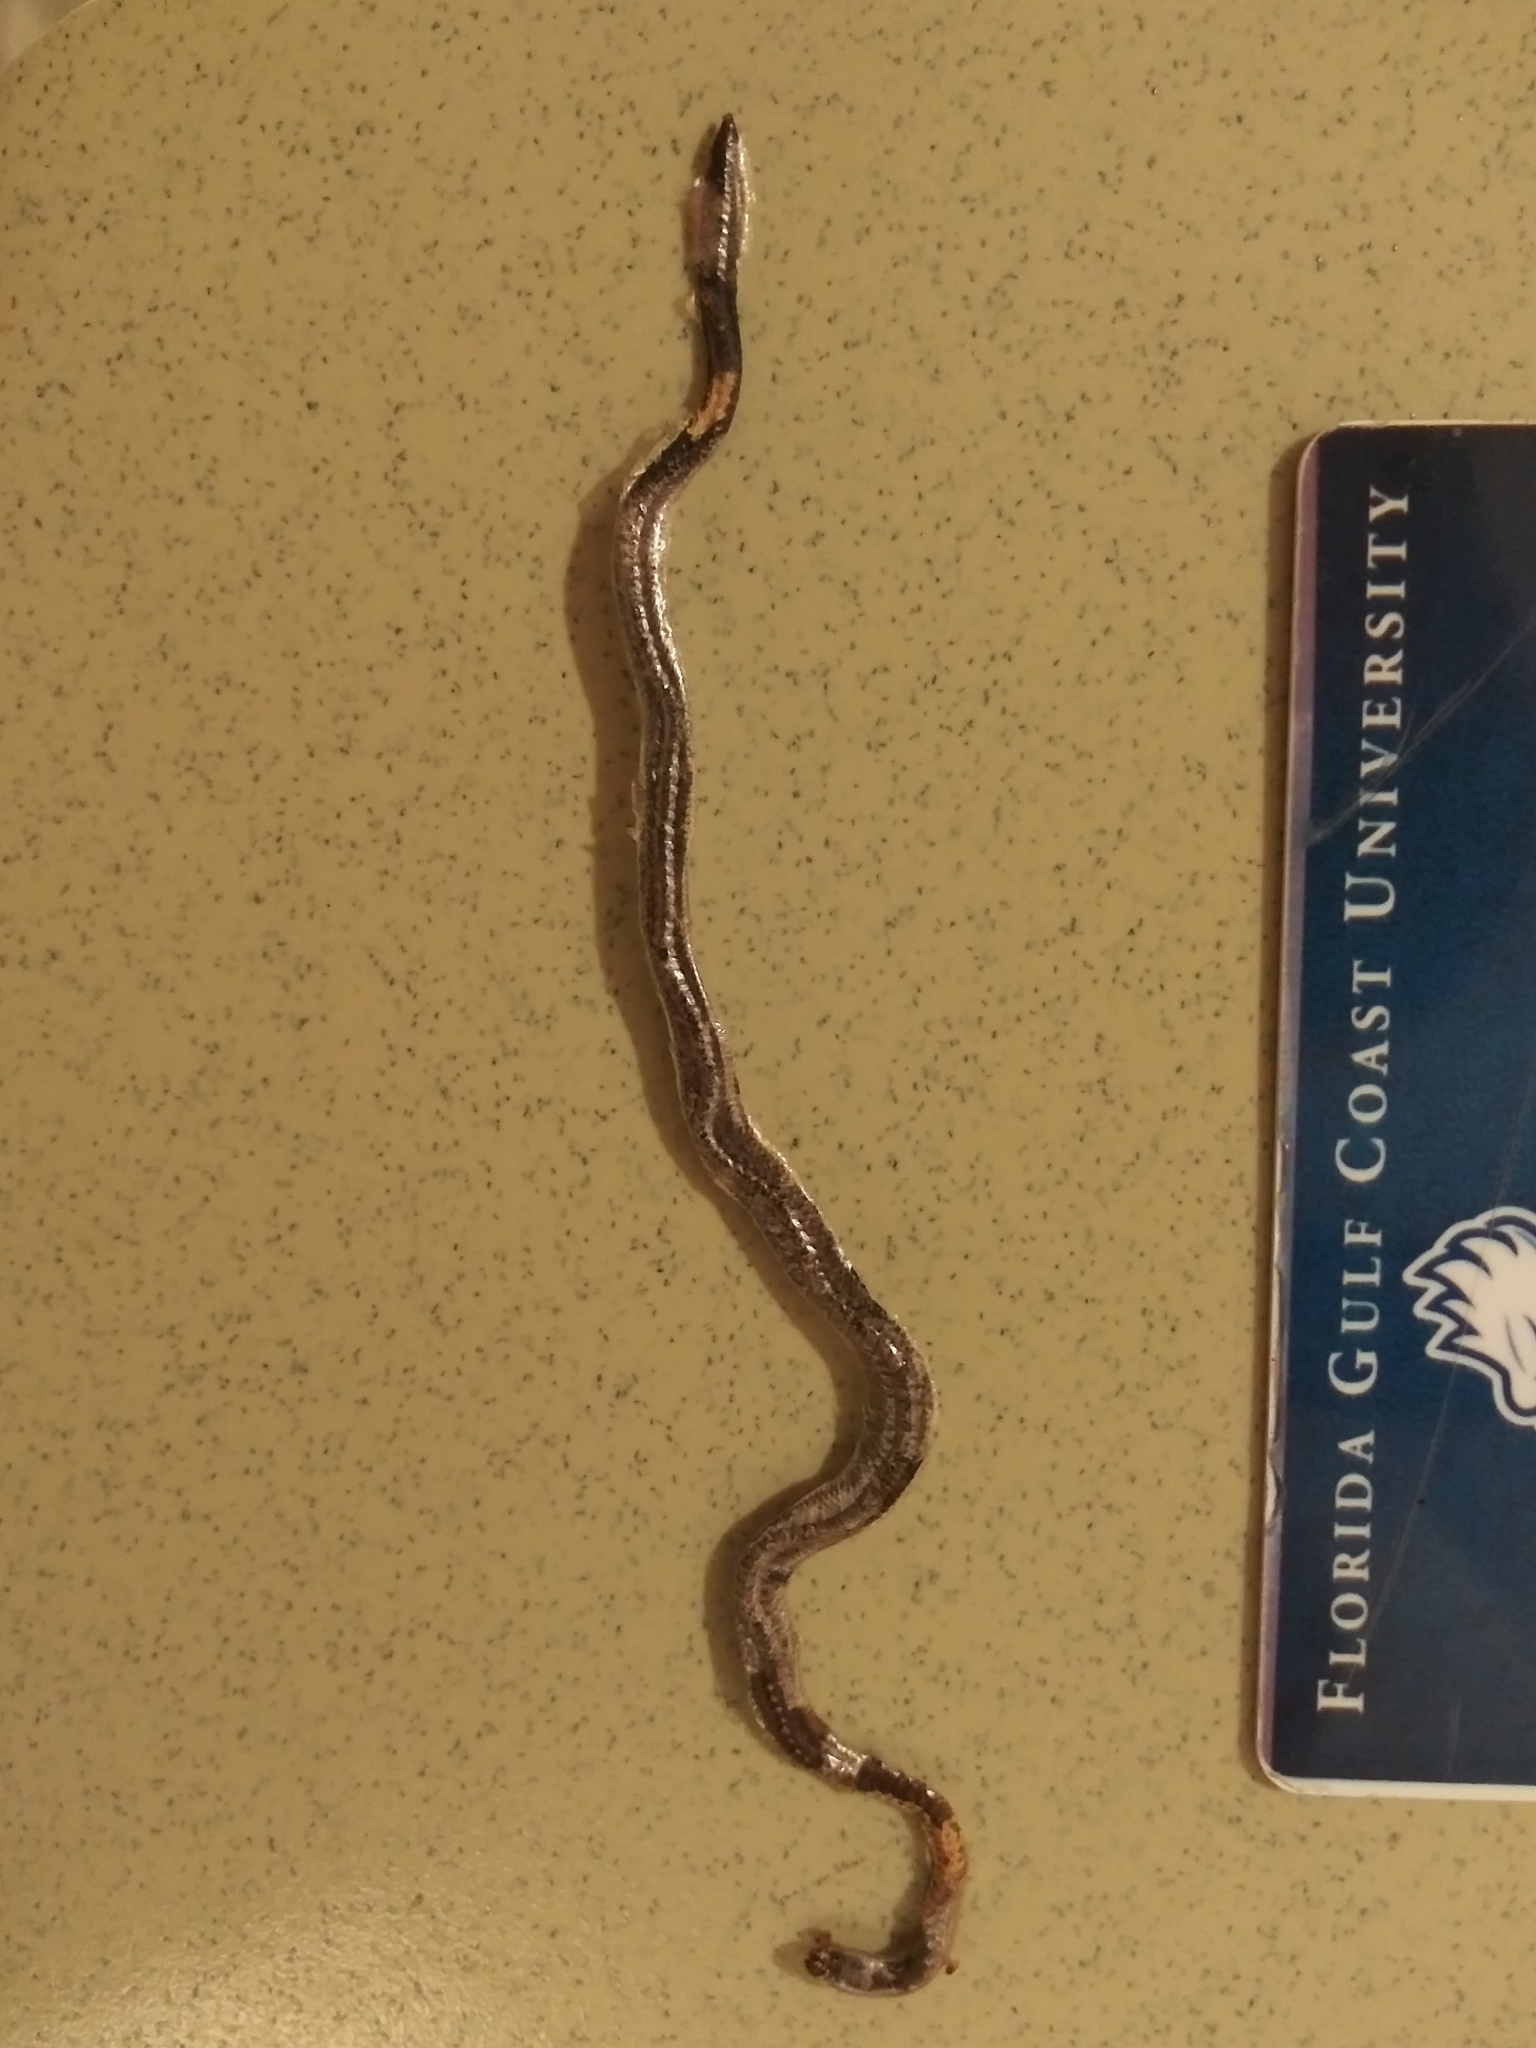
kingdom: Animalia
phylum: Chordata
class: Squamata
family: Typhlopidae
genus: Indotyphlops
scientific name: Indotyphlops braminus
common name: Brahminy blindsnake
